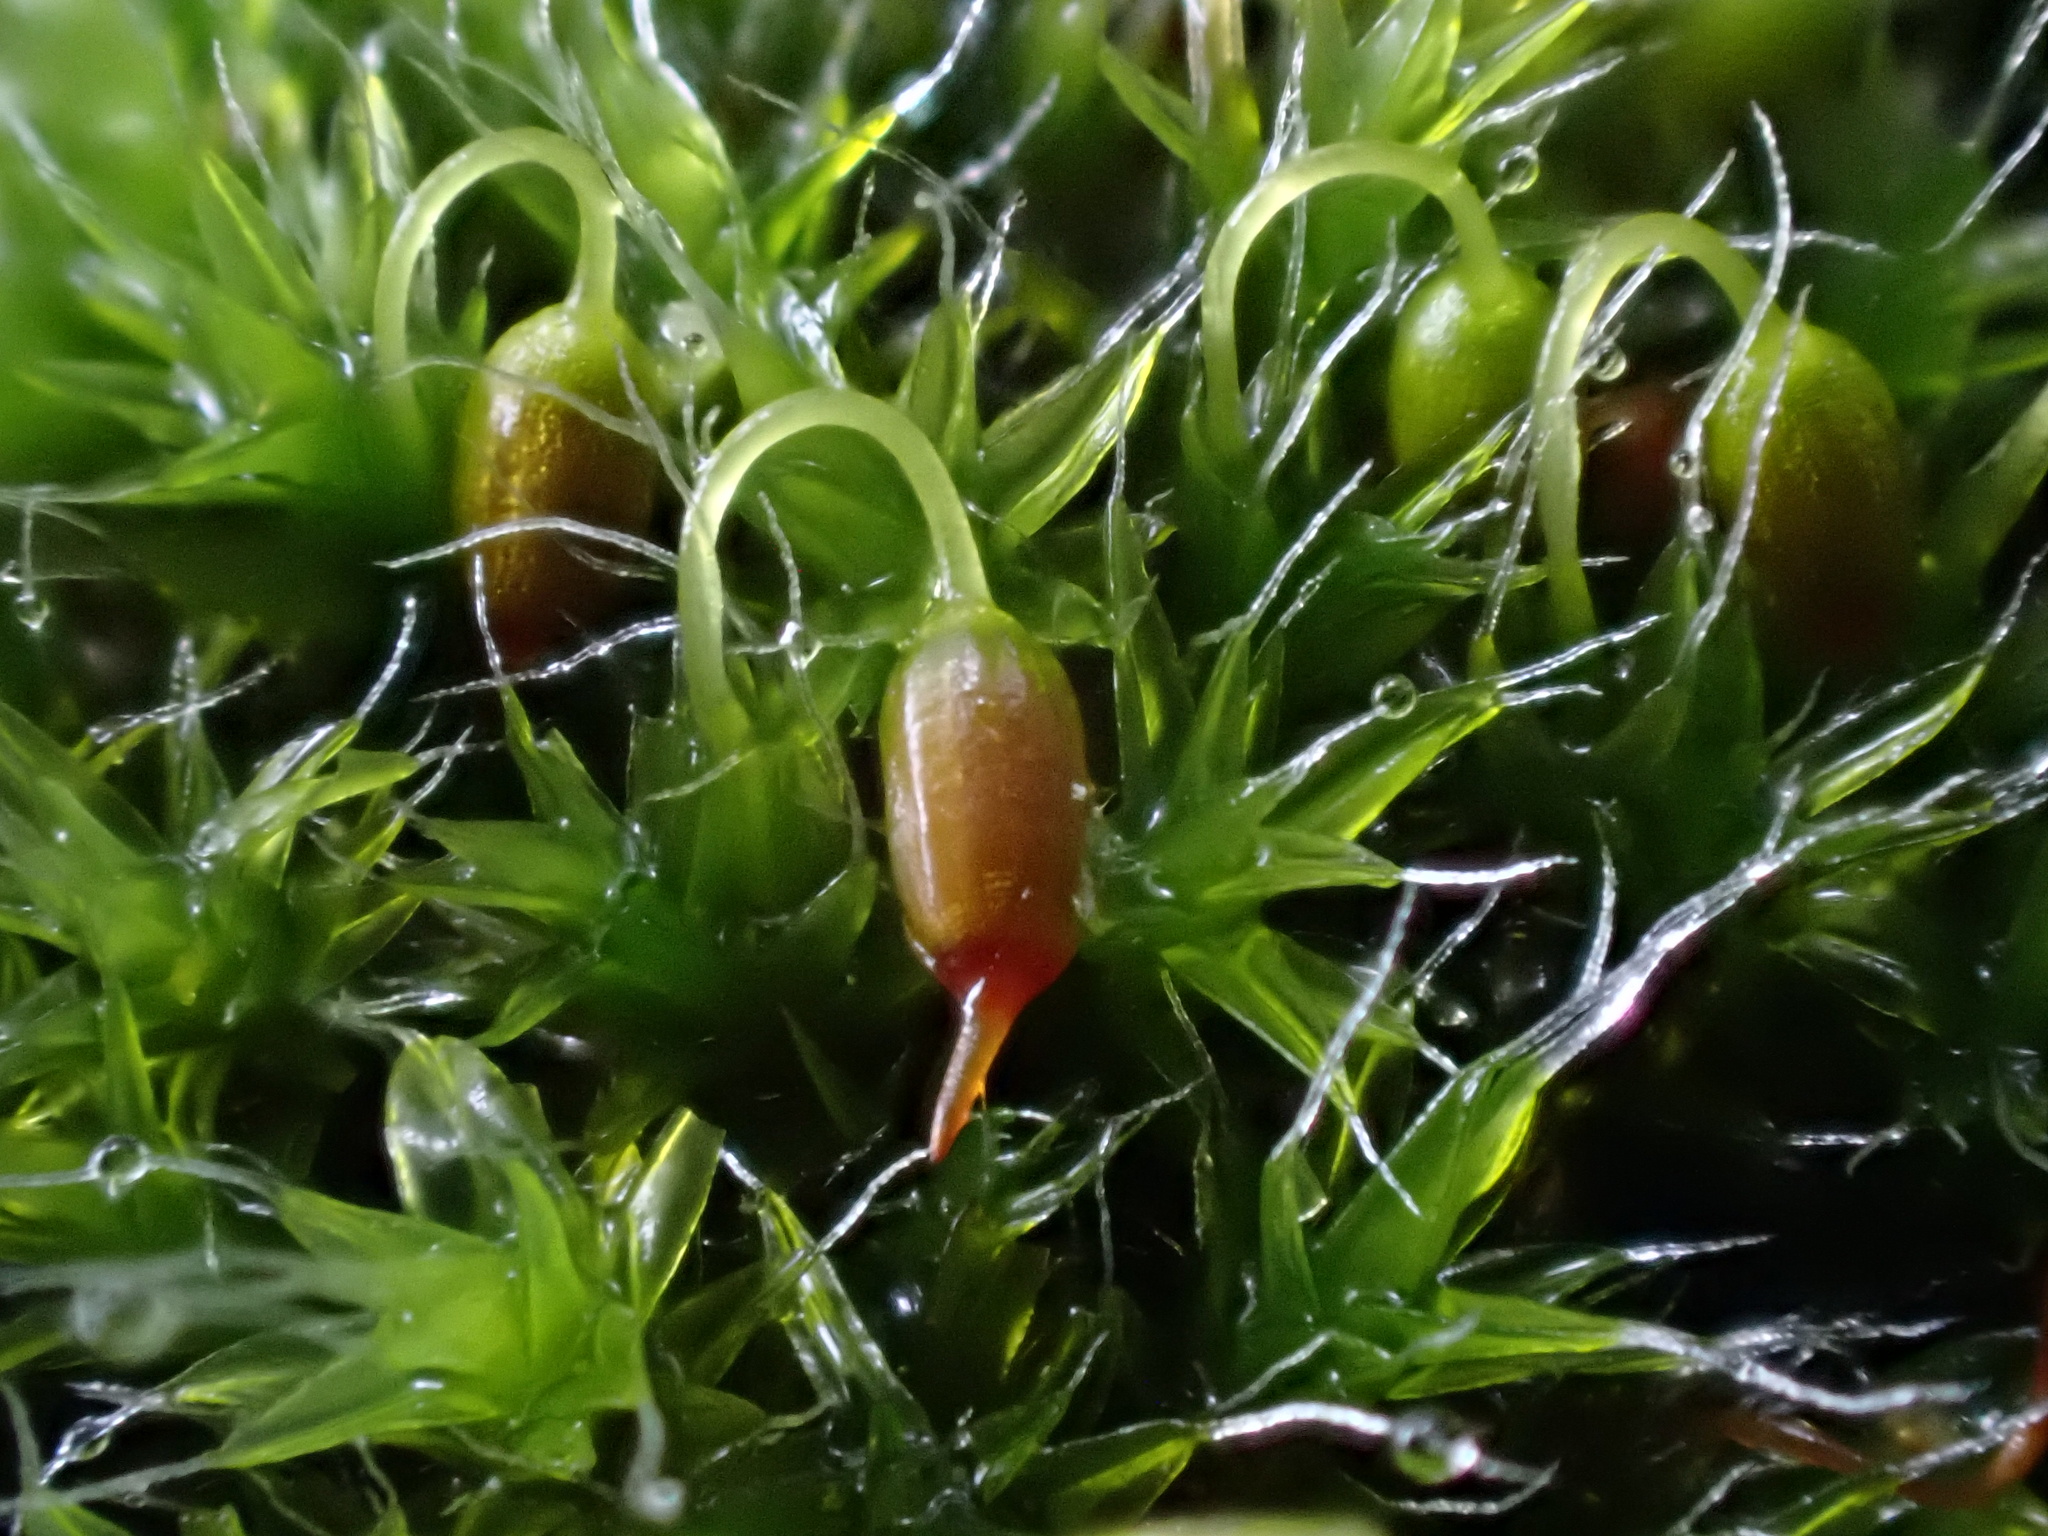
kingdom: Plantae
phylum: Bryophyta
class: Bryopsida
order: Grimmiales
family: Grimmiaceae
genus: Grimmia
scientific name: Grimmia pulvinata
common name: Grey-cushioned grimmia
